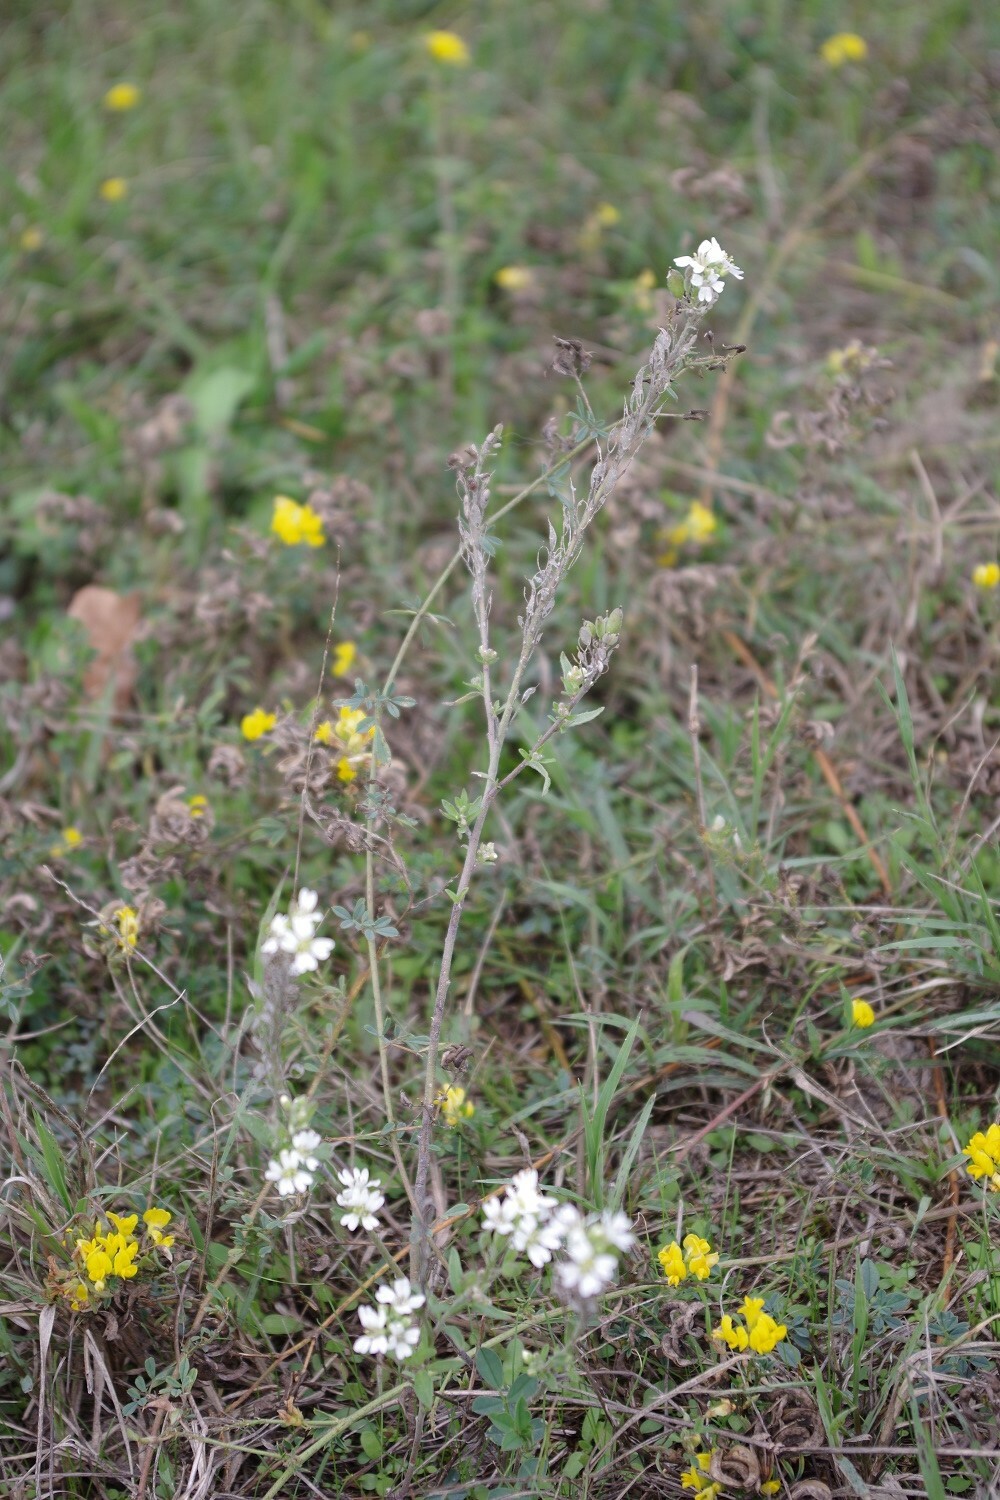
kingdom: Plantae
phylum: Tracheophyta
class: Magnoliopsida
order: Brassicales
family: Brassicaceae
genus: Berteroa
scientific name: Berteroa incana
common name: Hoary alison
